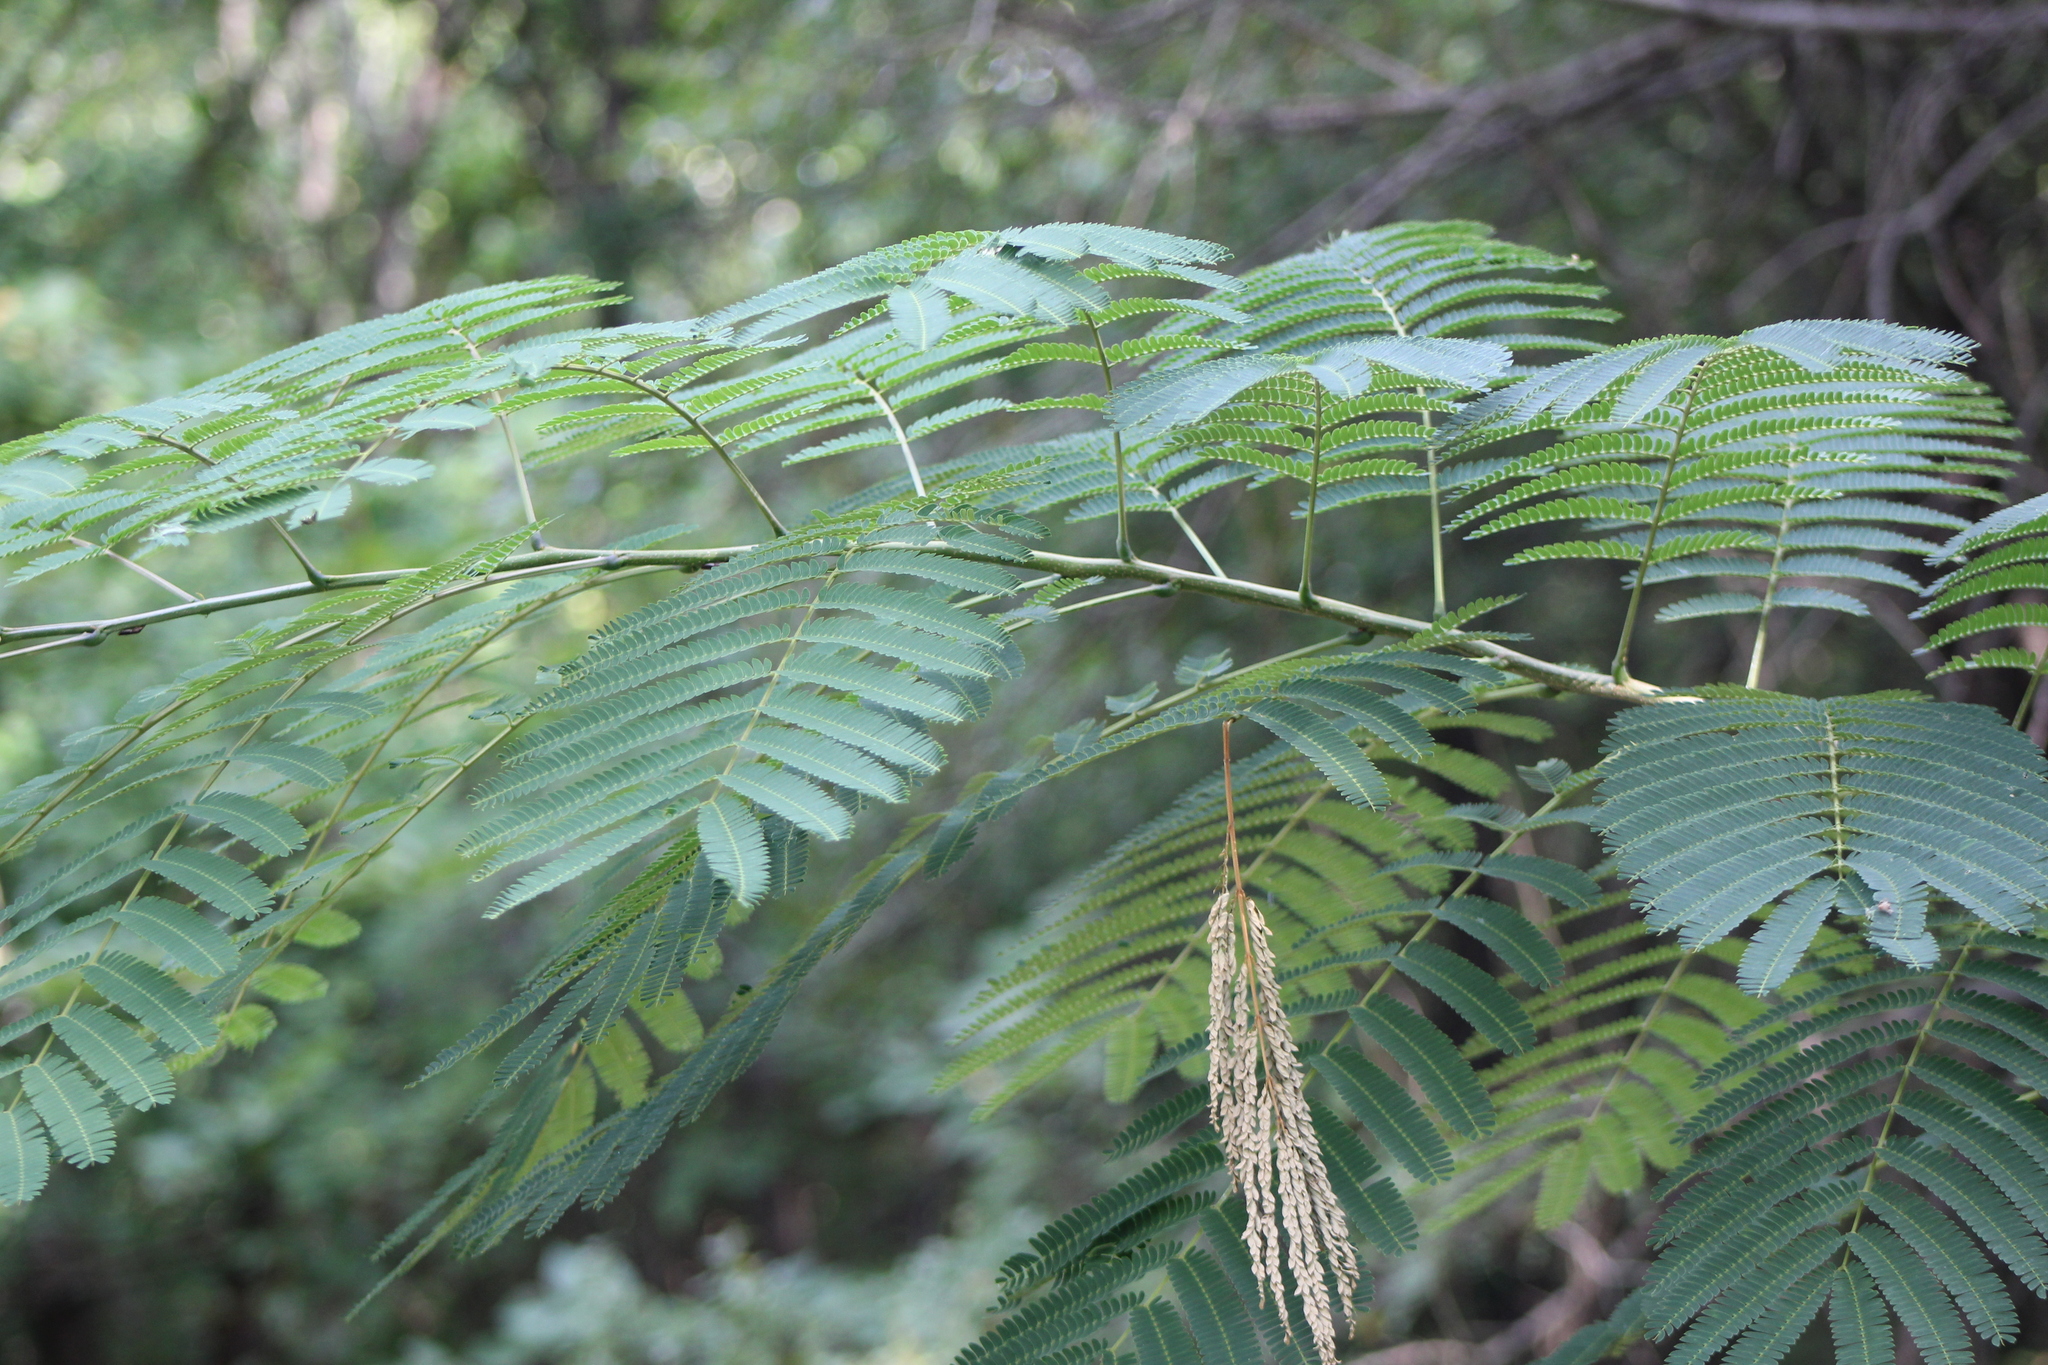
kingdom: Plantae
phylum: Tracheophyta
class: Magnoliopsida
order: Fabales
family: Fabaceae
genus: Albizia
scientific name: Albizia julibrissin
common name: Silktree
